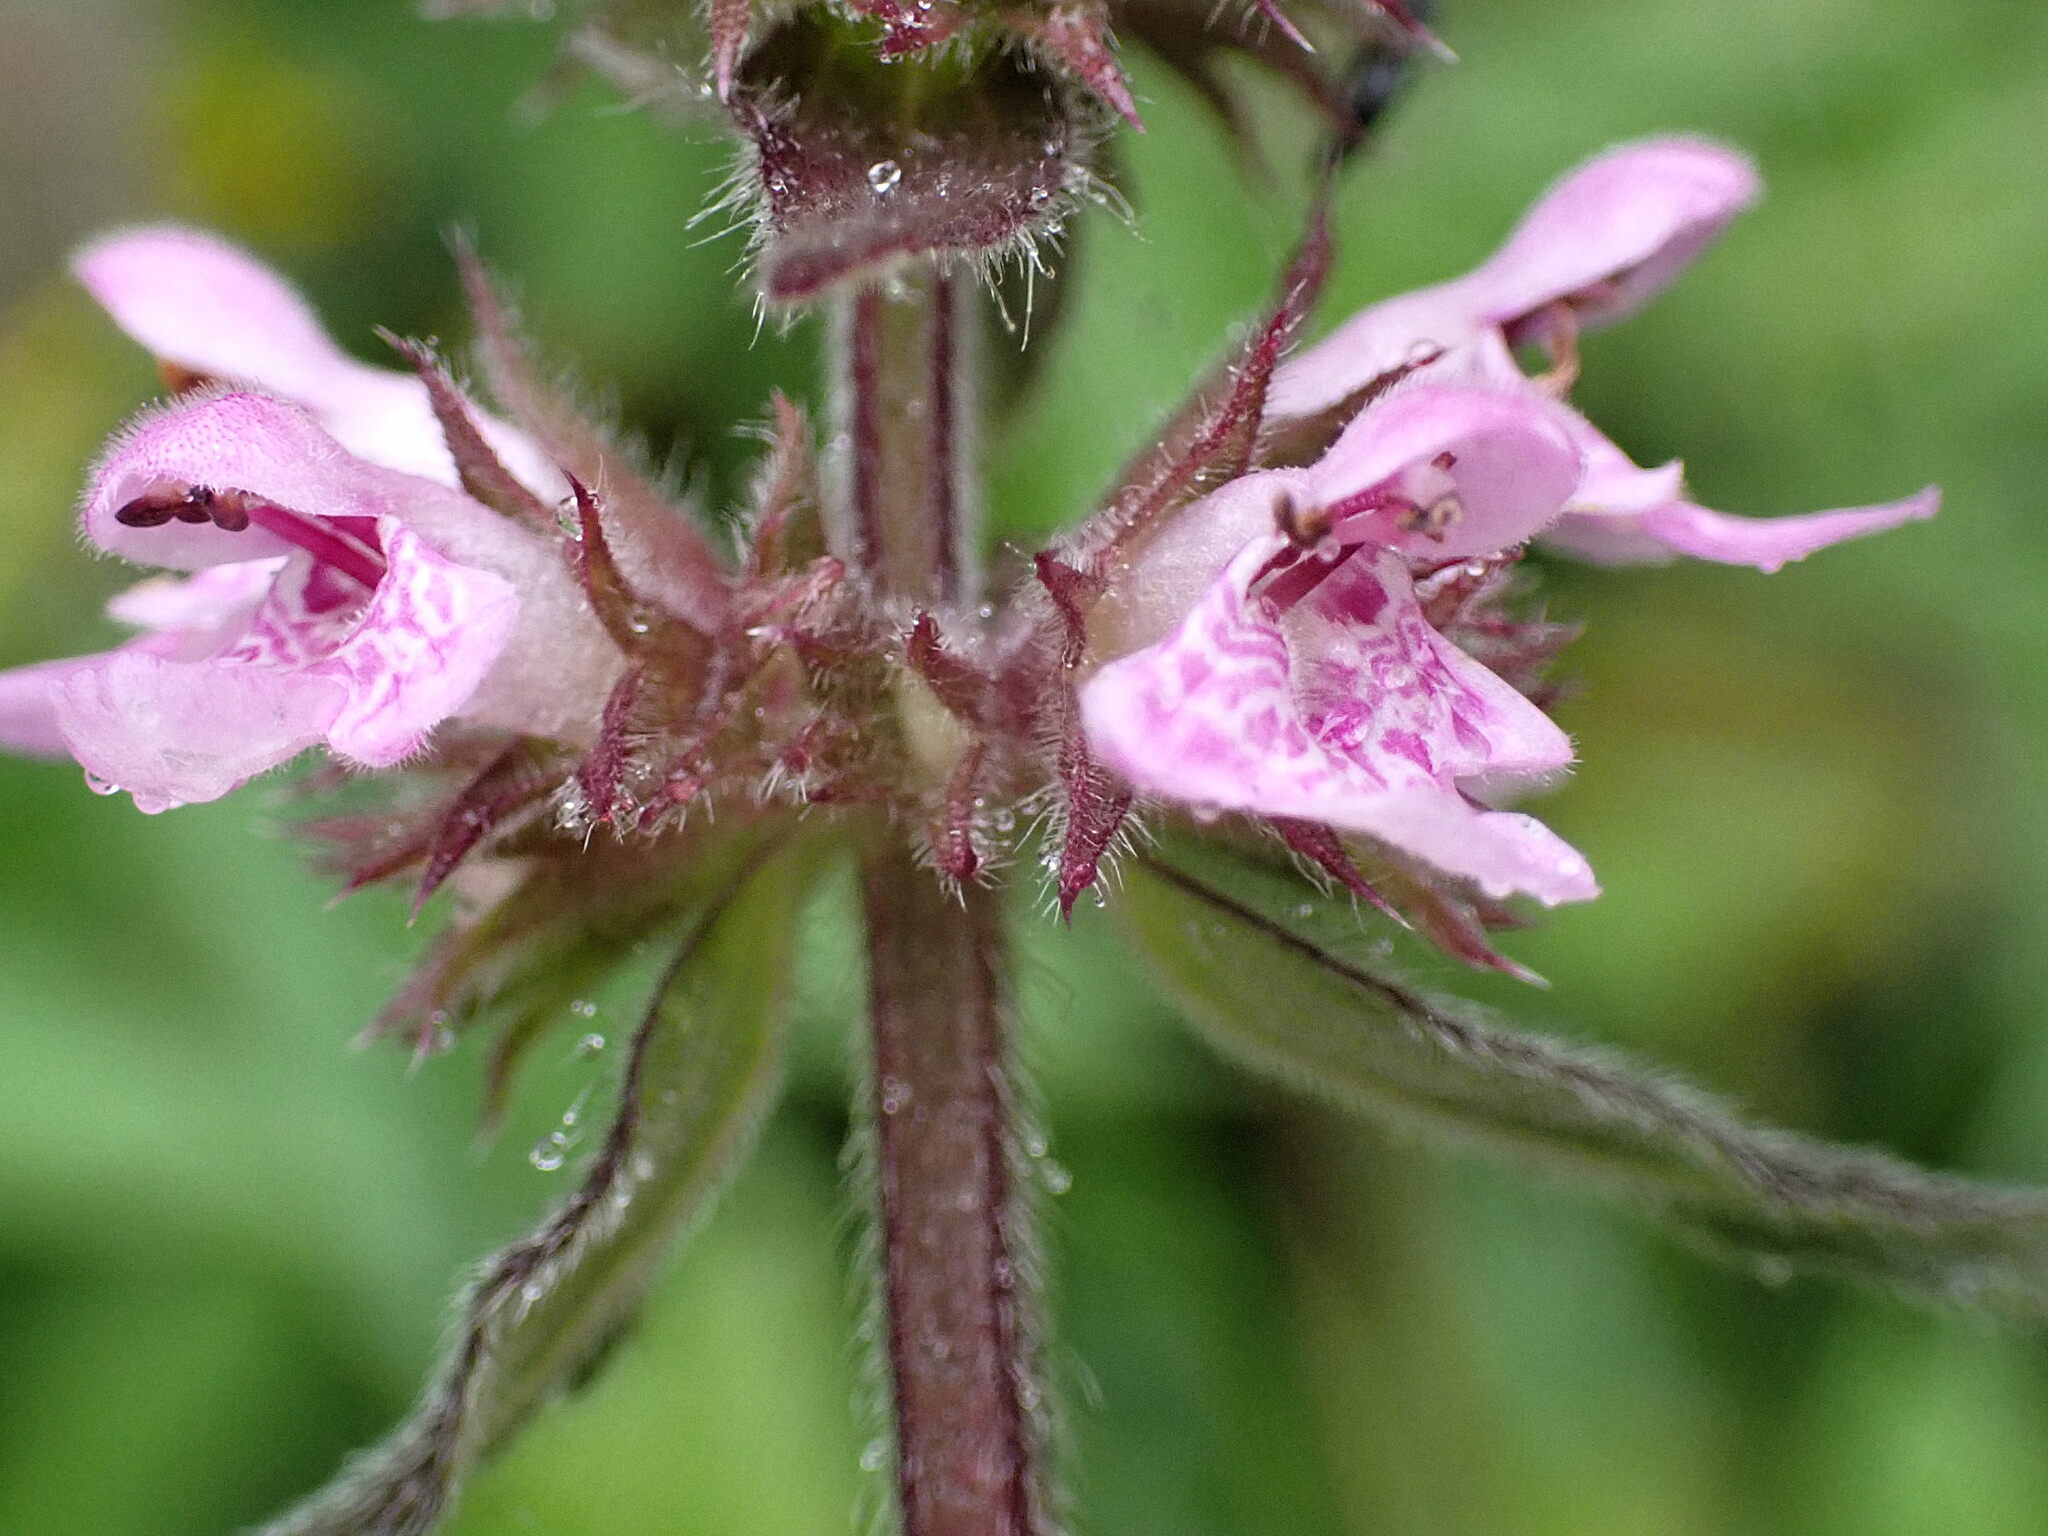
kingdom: Plantae
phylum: Tracheophyta
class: Magnoliopsida
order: Lamiales
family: Lamiaceae
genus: Stachys
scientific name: Stachys palustris
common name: Marsh woundwort
